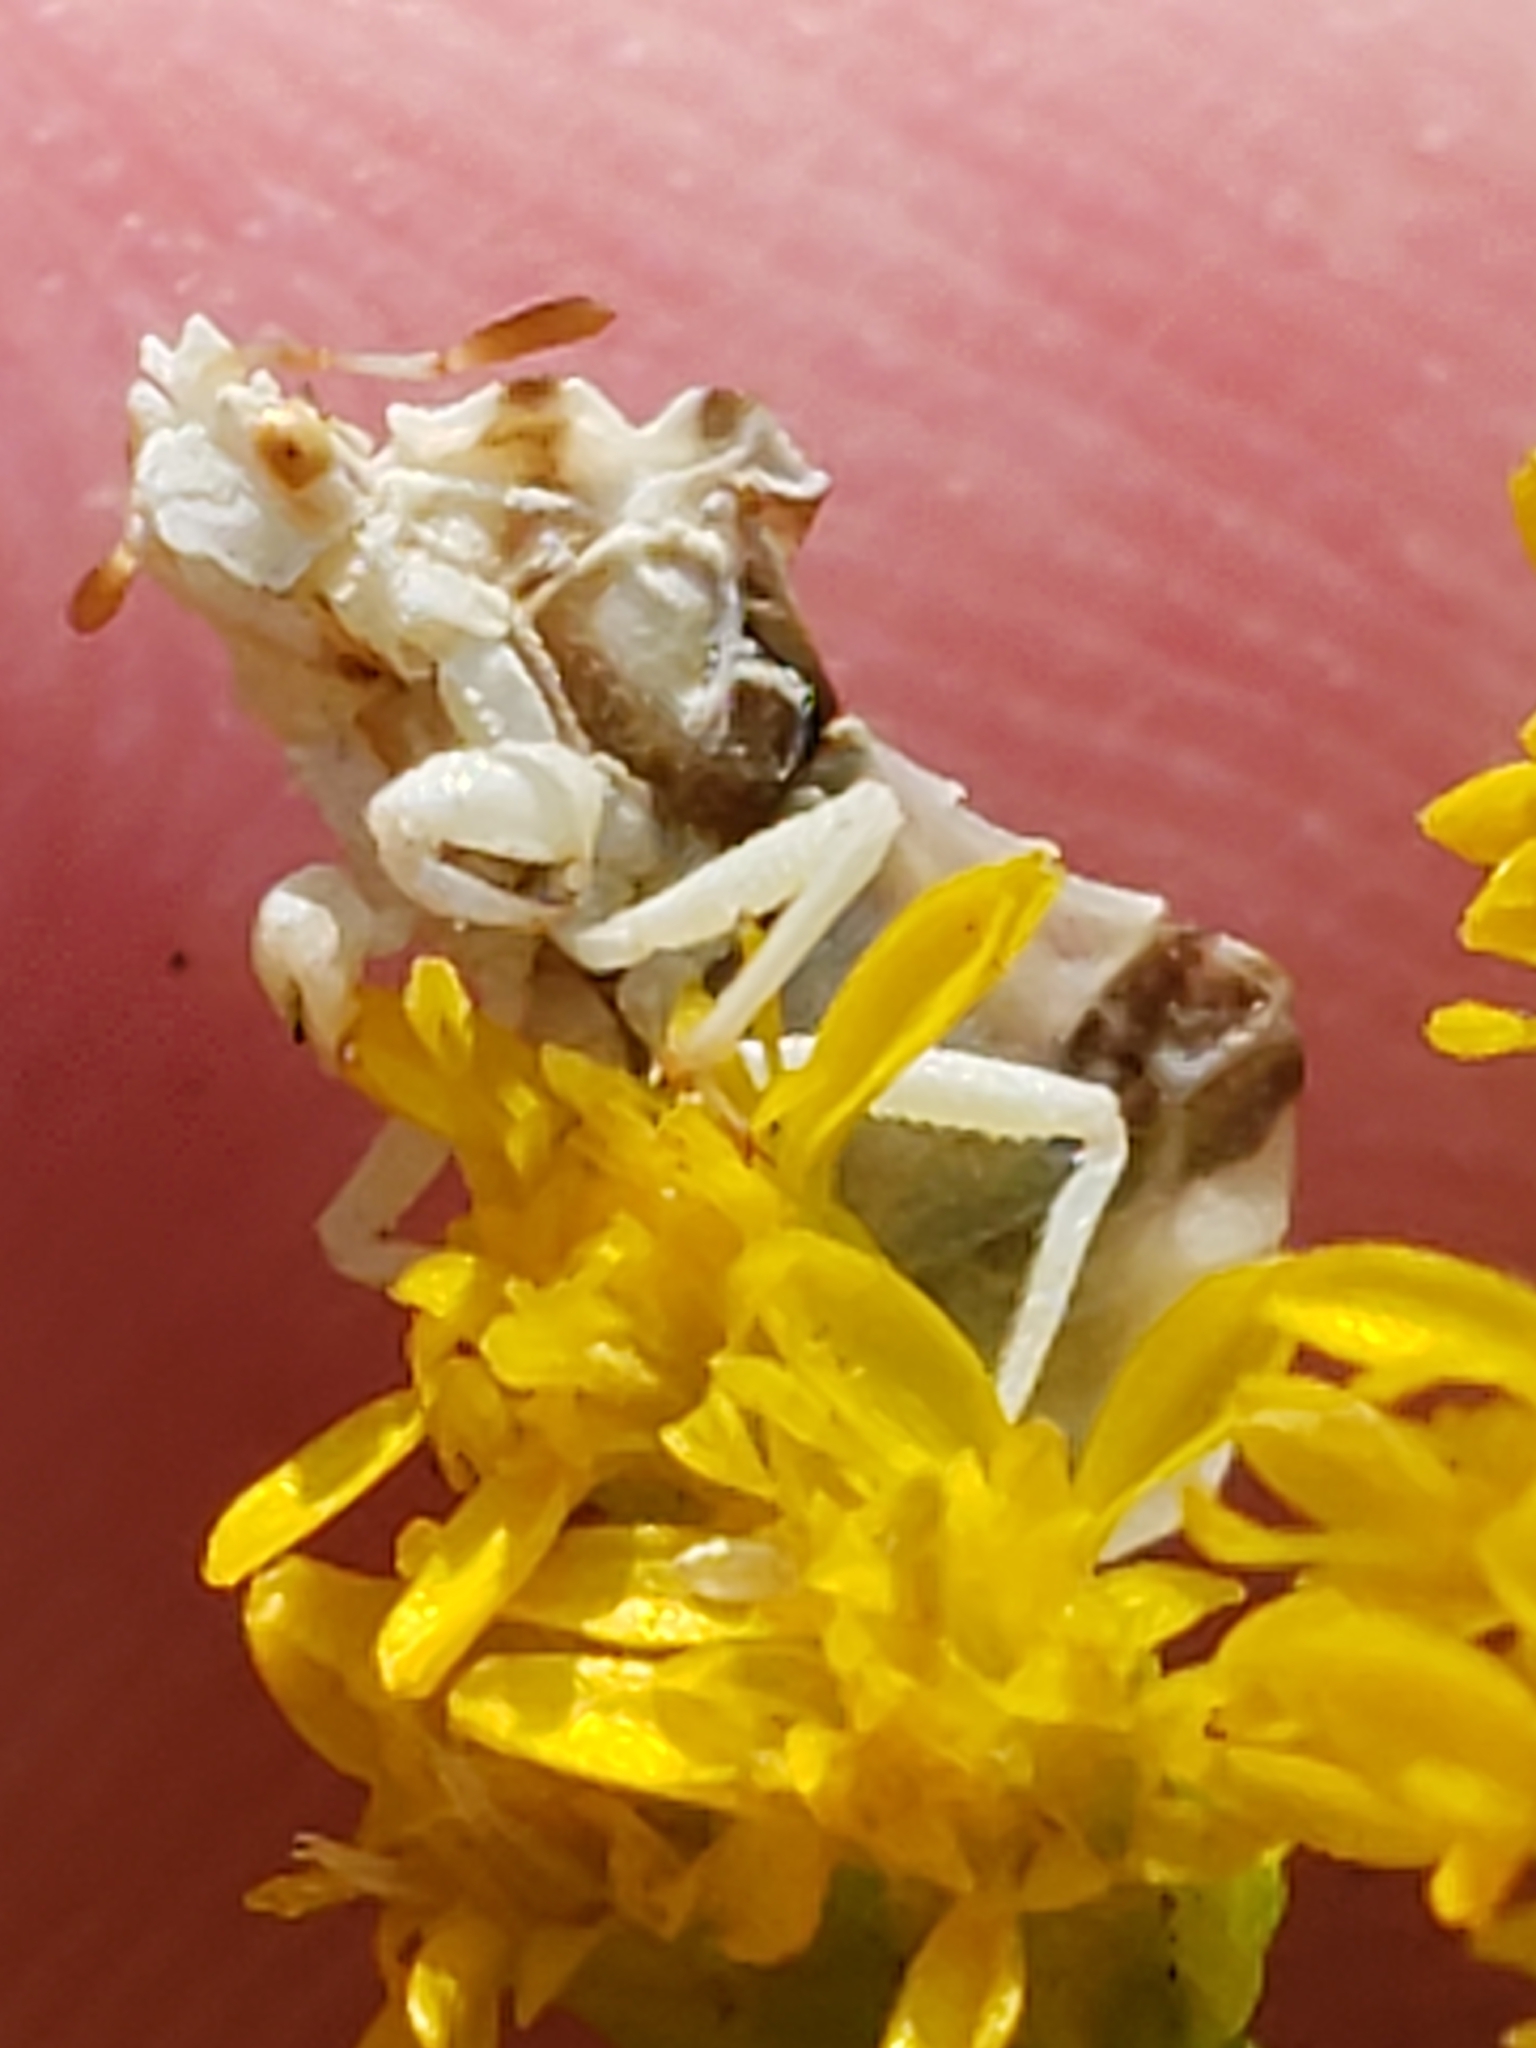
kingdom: Animalia
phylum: Arthropoda
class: Insecta
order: Hemiptera
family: Reduviidae
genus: Phymata
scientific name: Phymata fasciata
